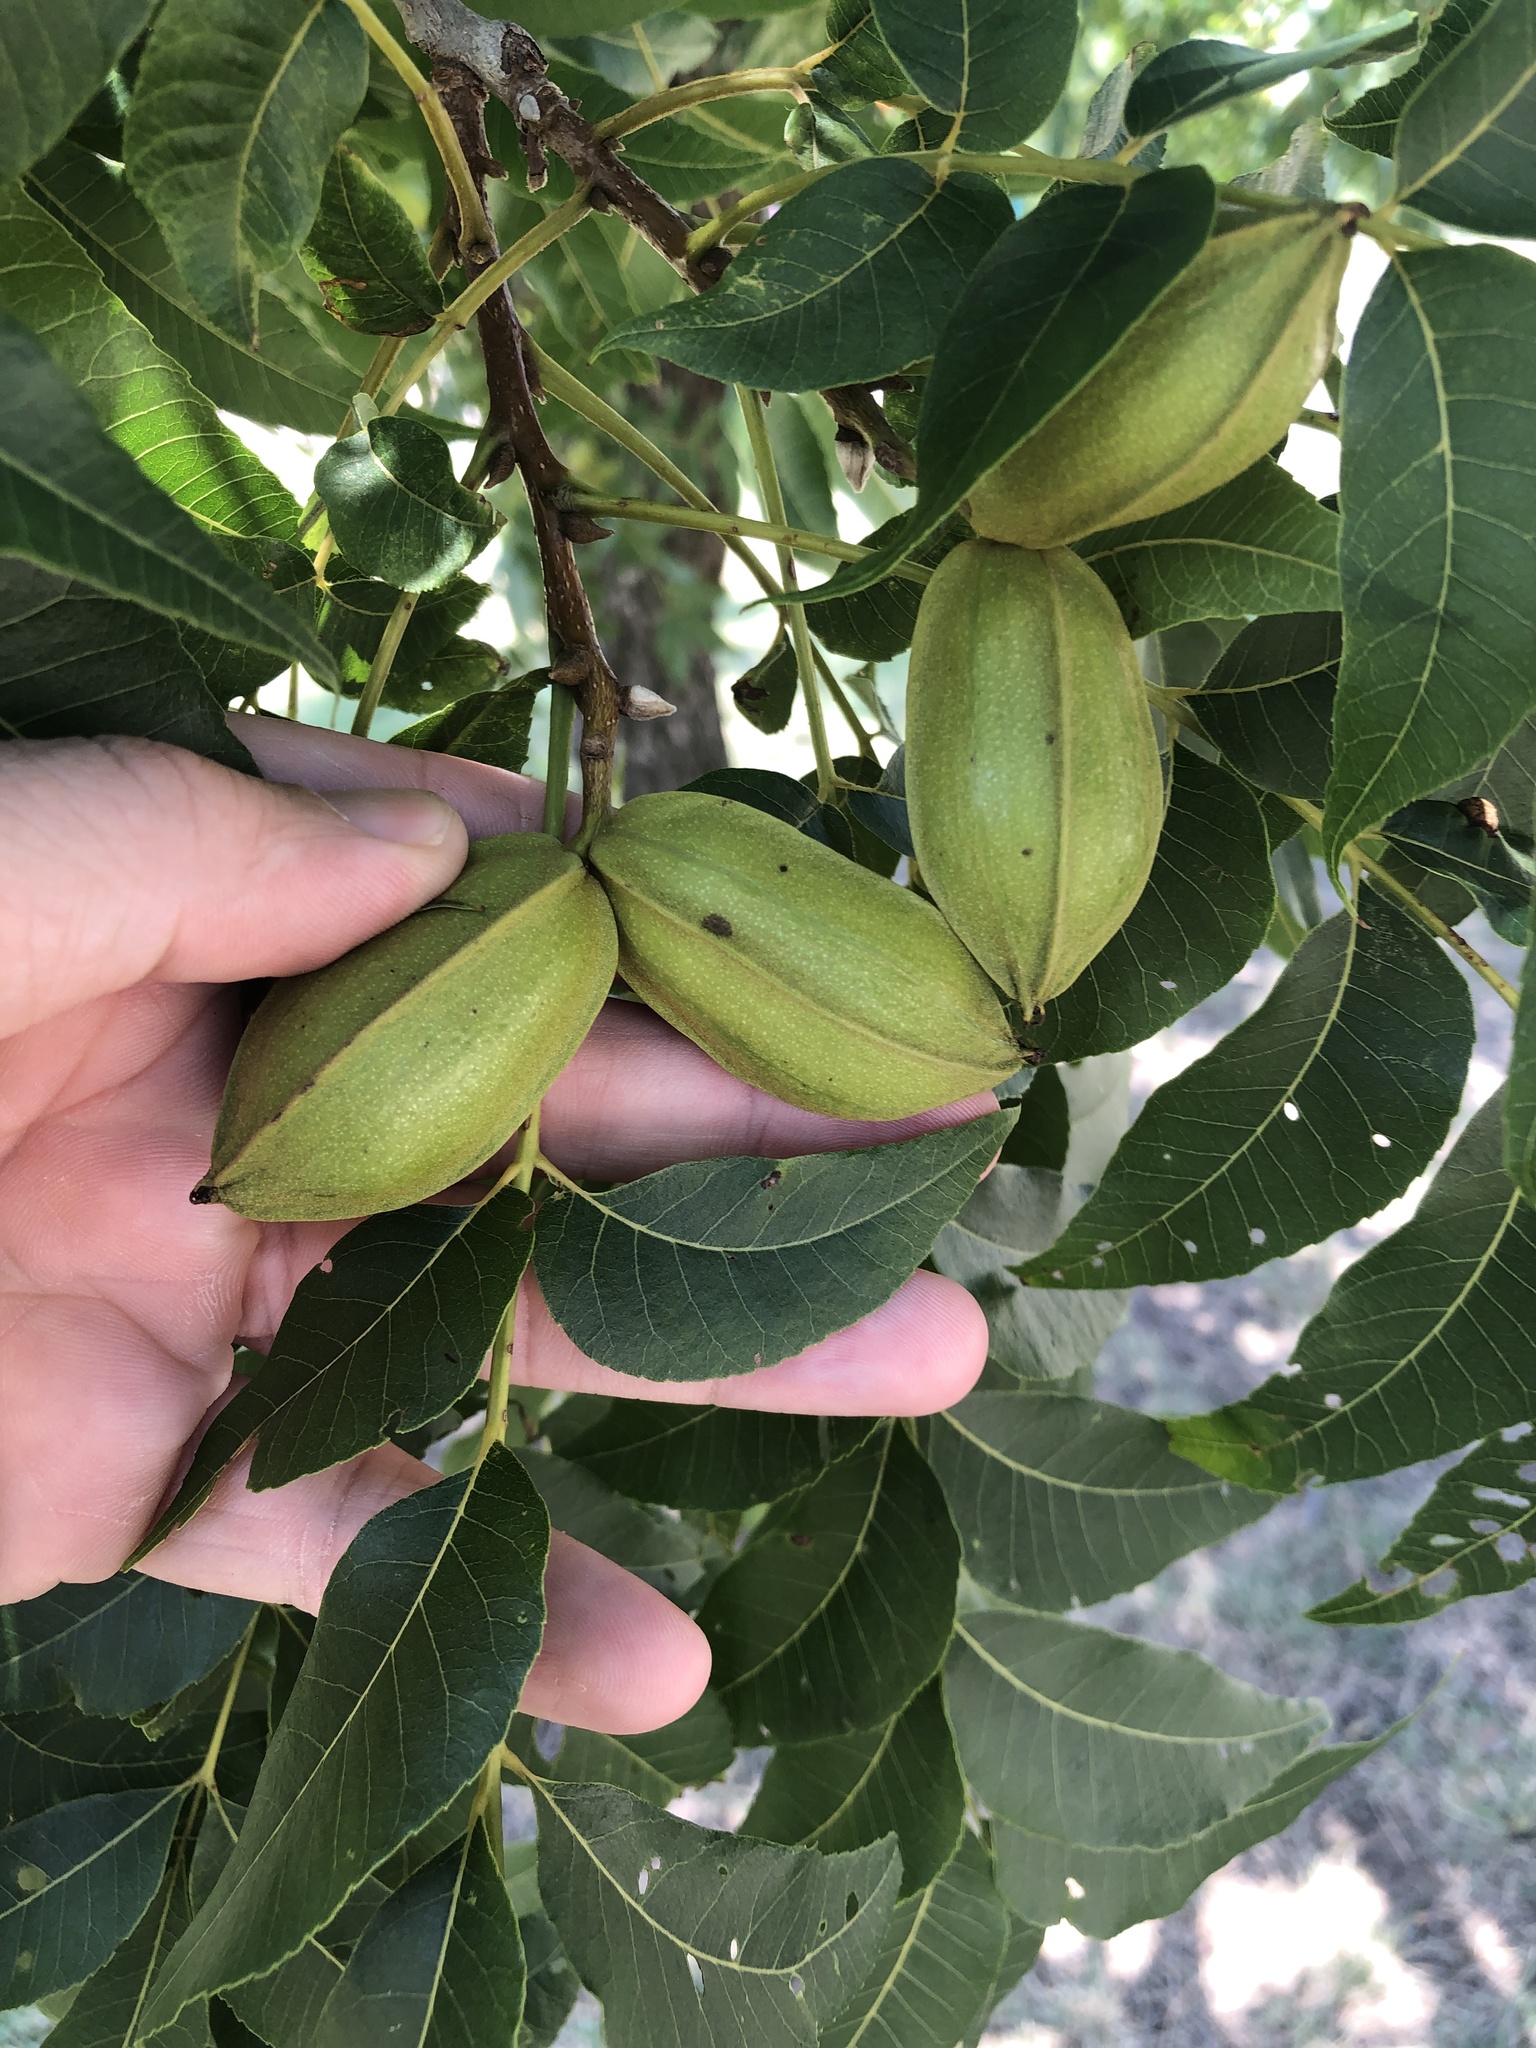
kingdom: Plantae
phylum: Tracheophyta
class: Magnoliopsida
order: Fagales
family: Juglandaceae
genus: Carya
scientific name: Carya illinoinensis
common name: Pecan
